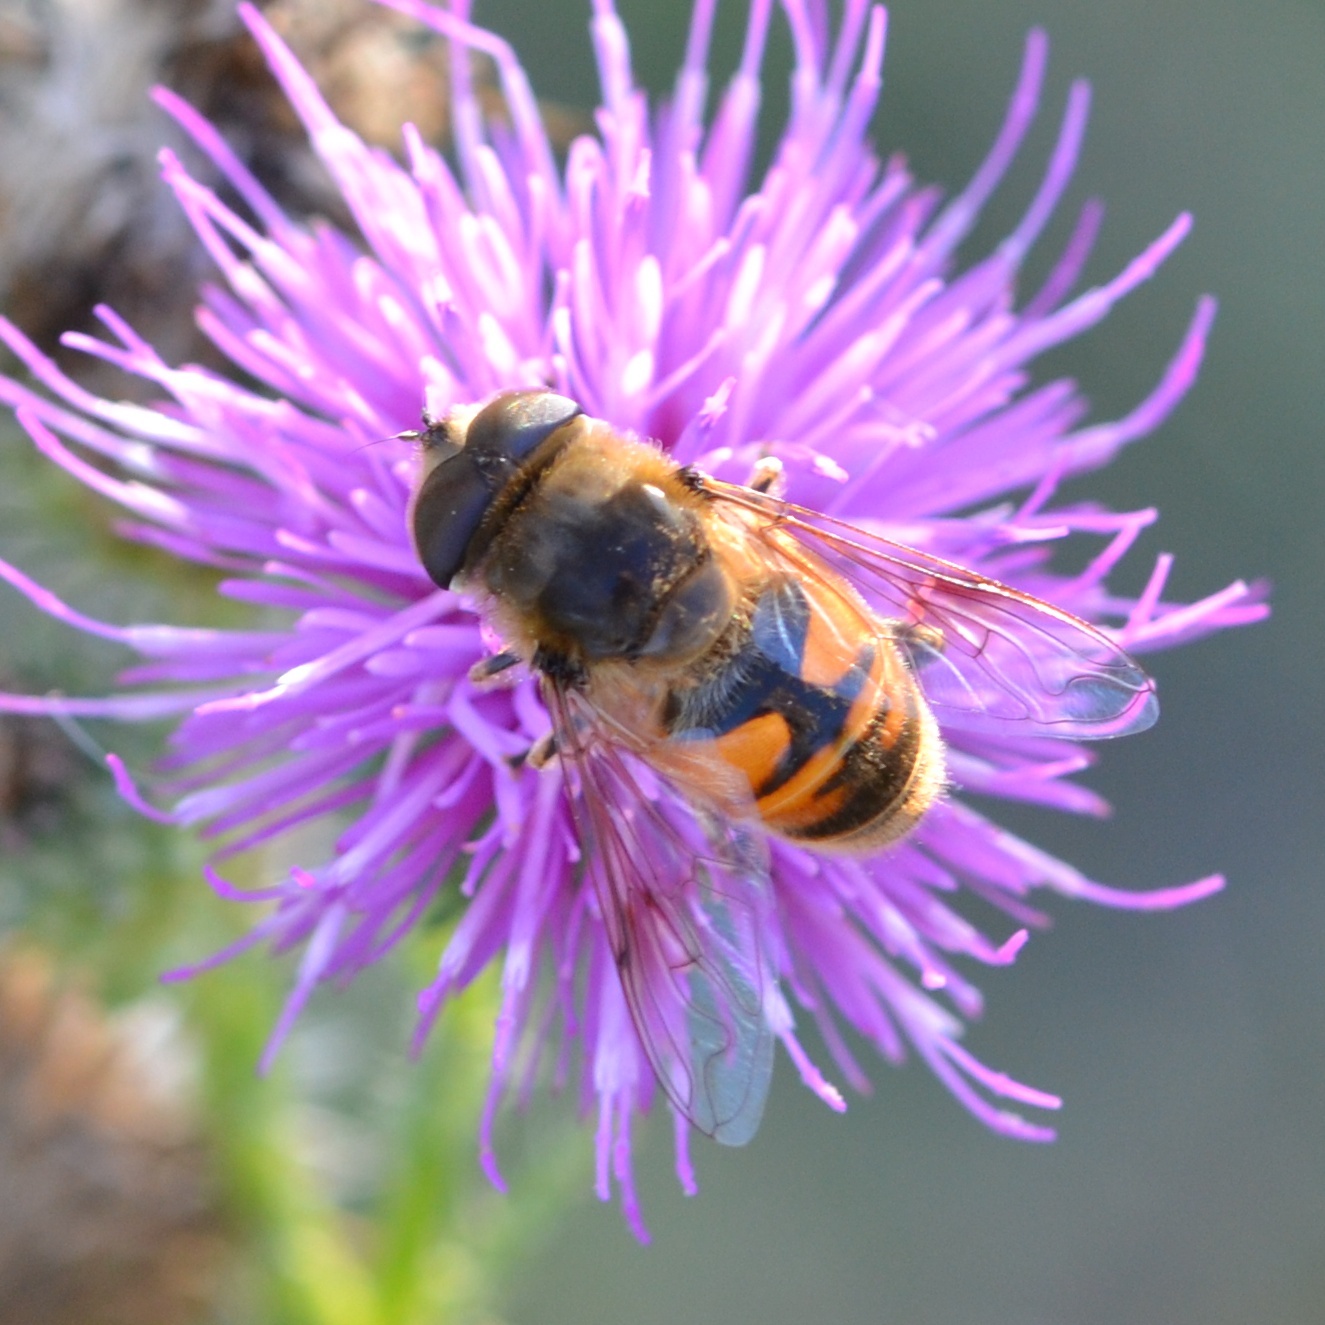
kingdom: Animalia
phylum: Arthropoda
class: Insecta
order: Diptera
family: Syrphidae
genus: Eristalis
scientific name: Eristalis tenax
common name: Drone fly
